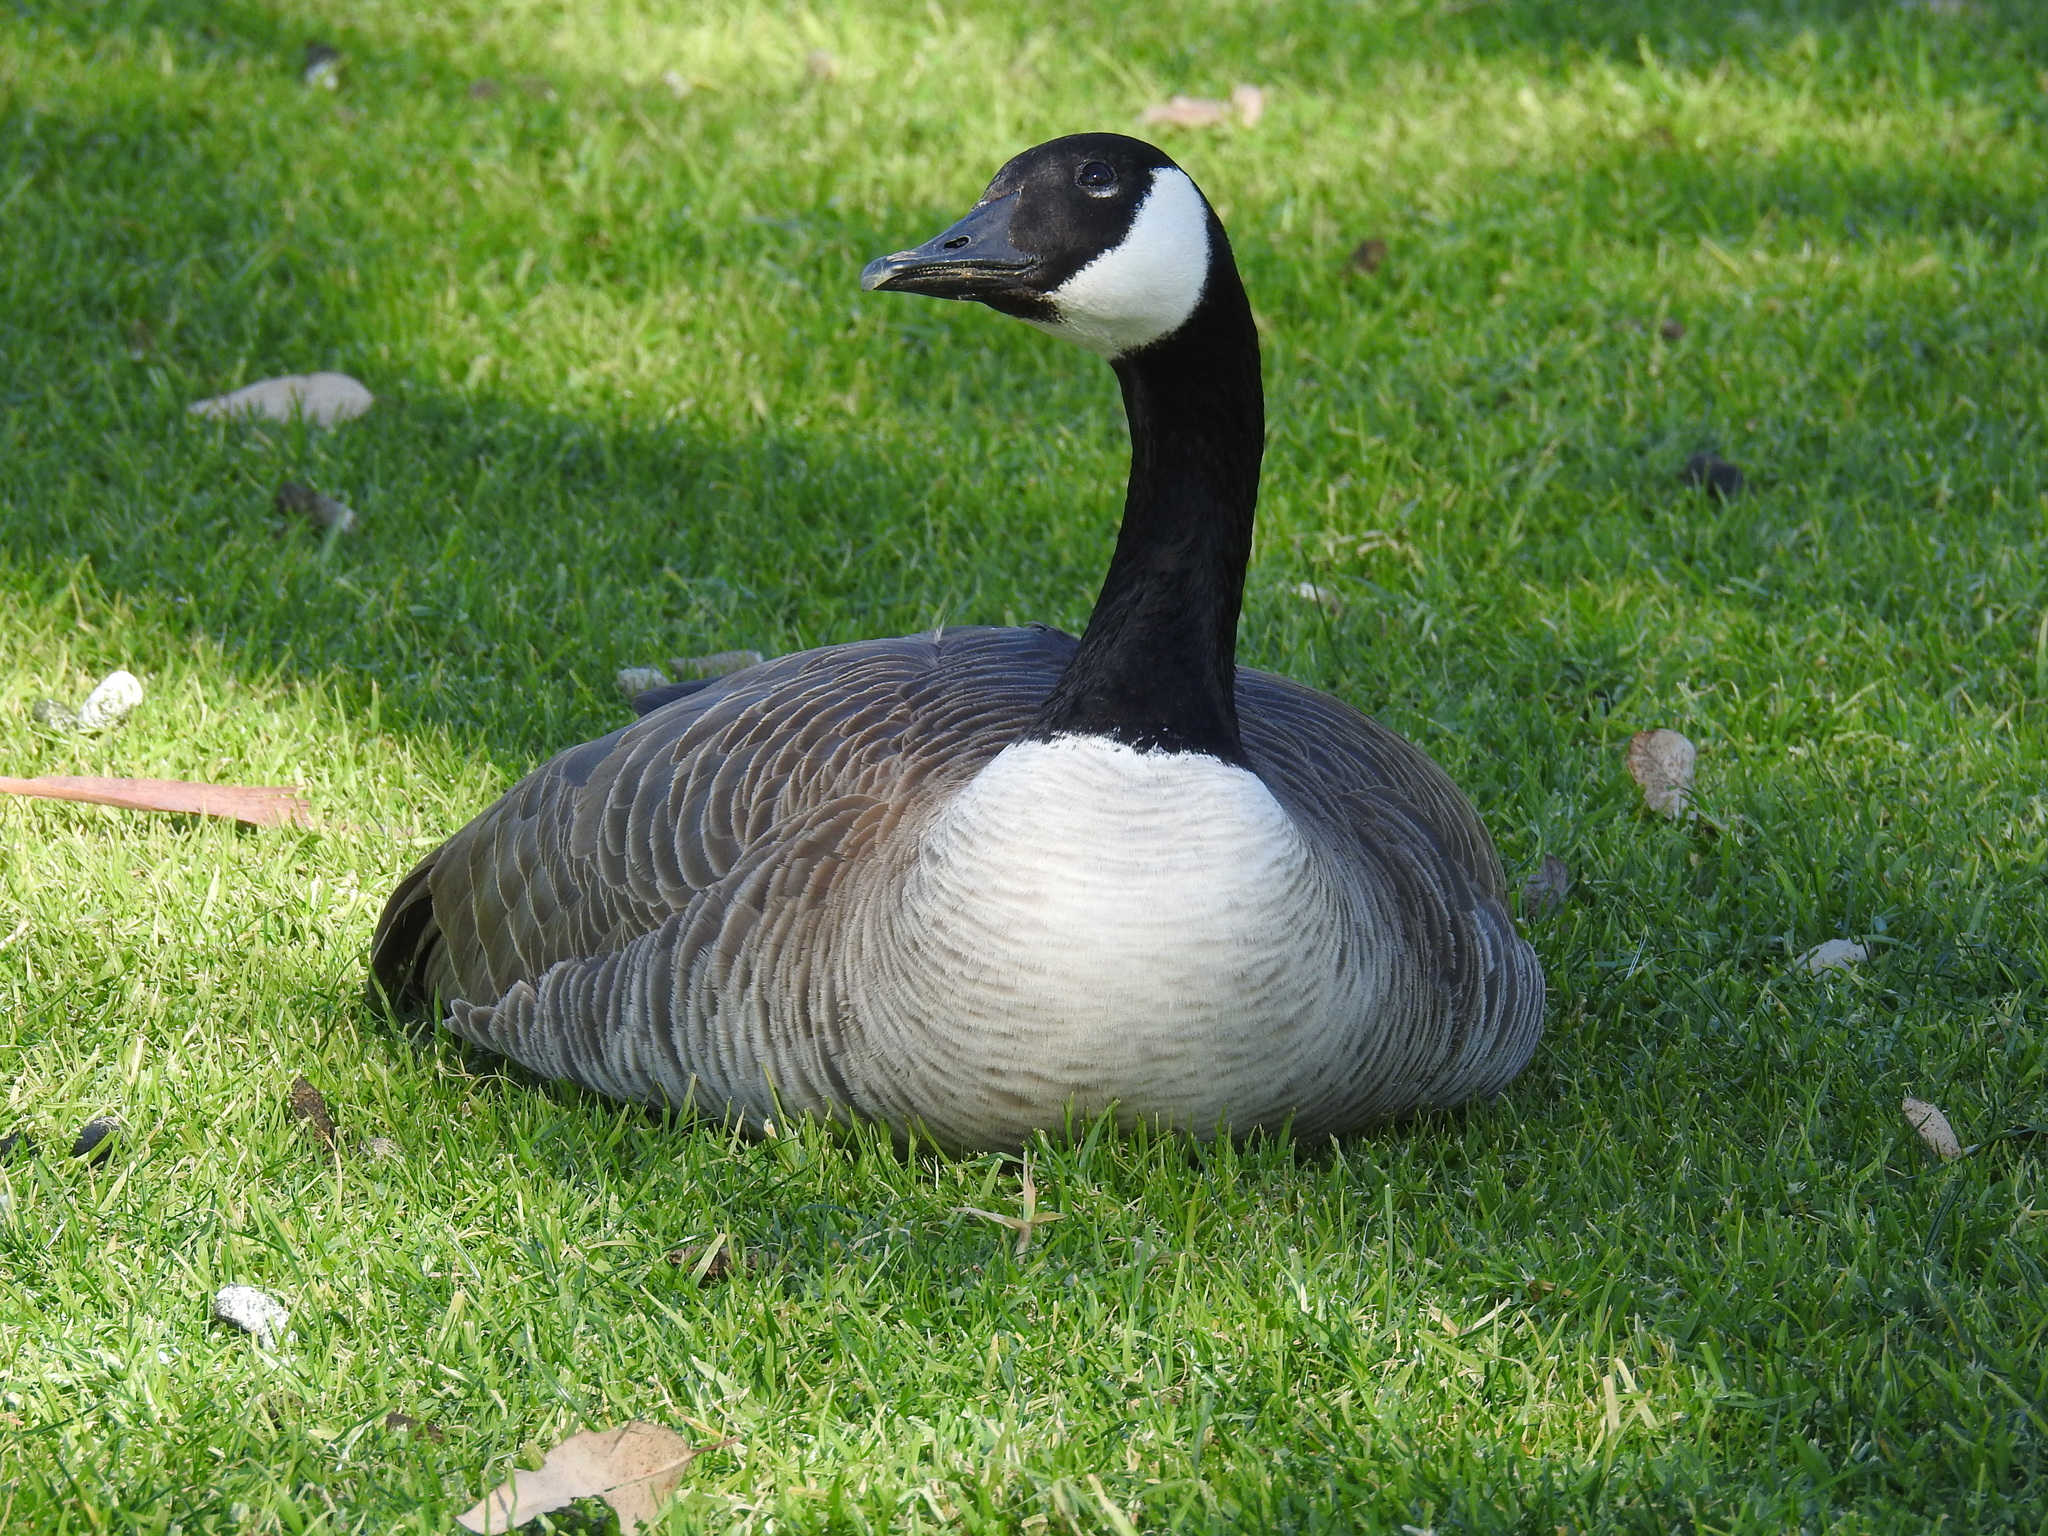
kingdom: Animalia
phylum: Chordata
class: Aves
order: Anseriformes
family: Anatidae
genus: Branta
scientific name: Branta canadensis
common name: Canada goose
